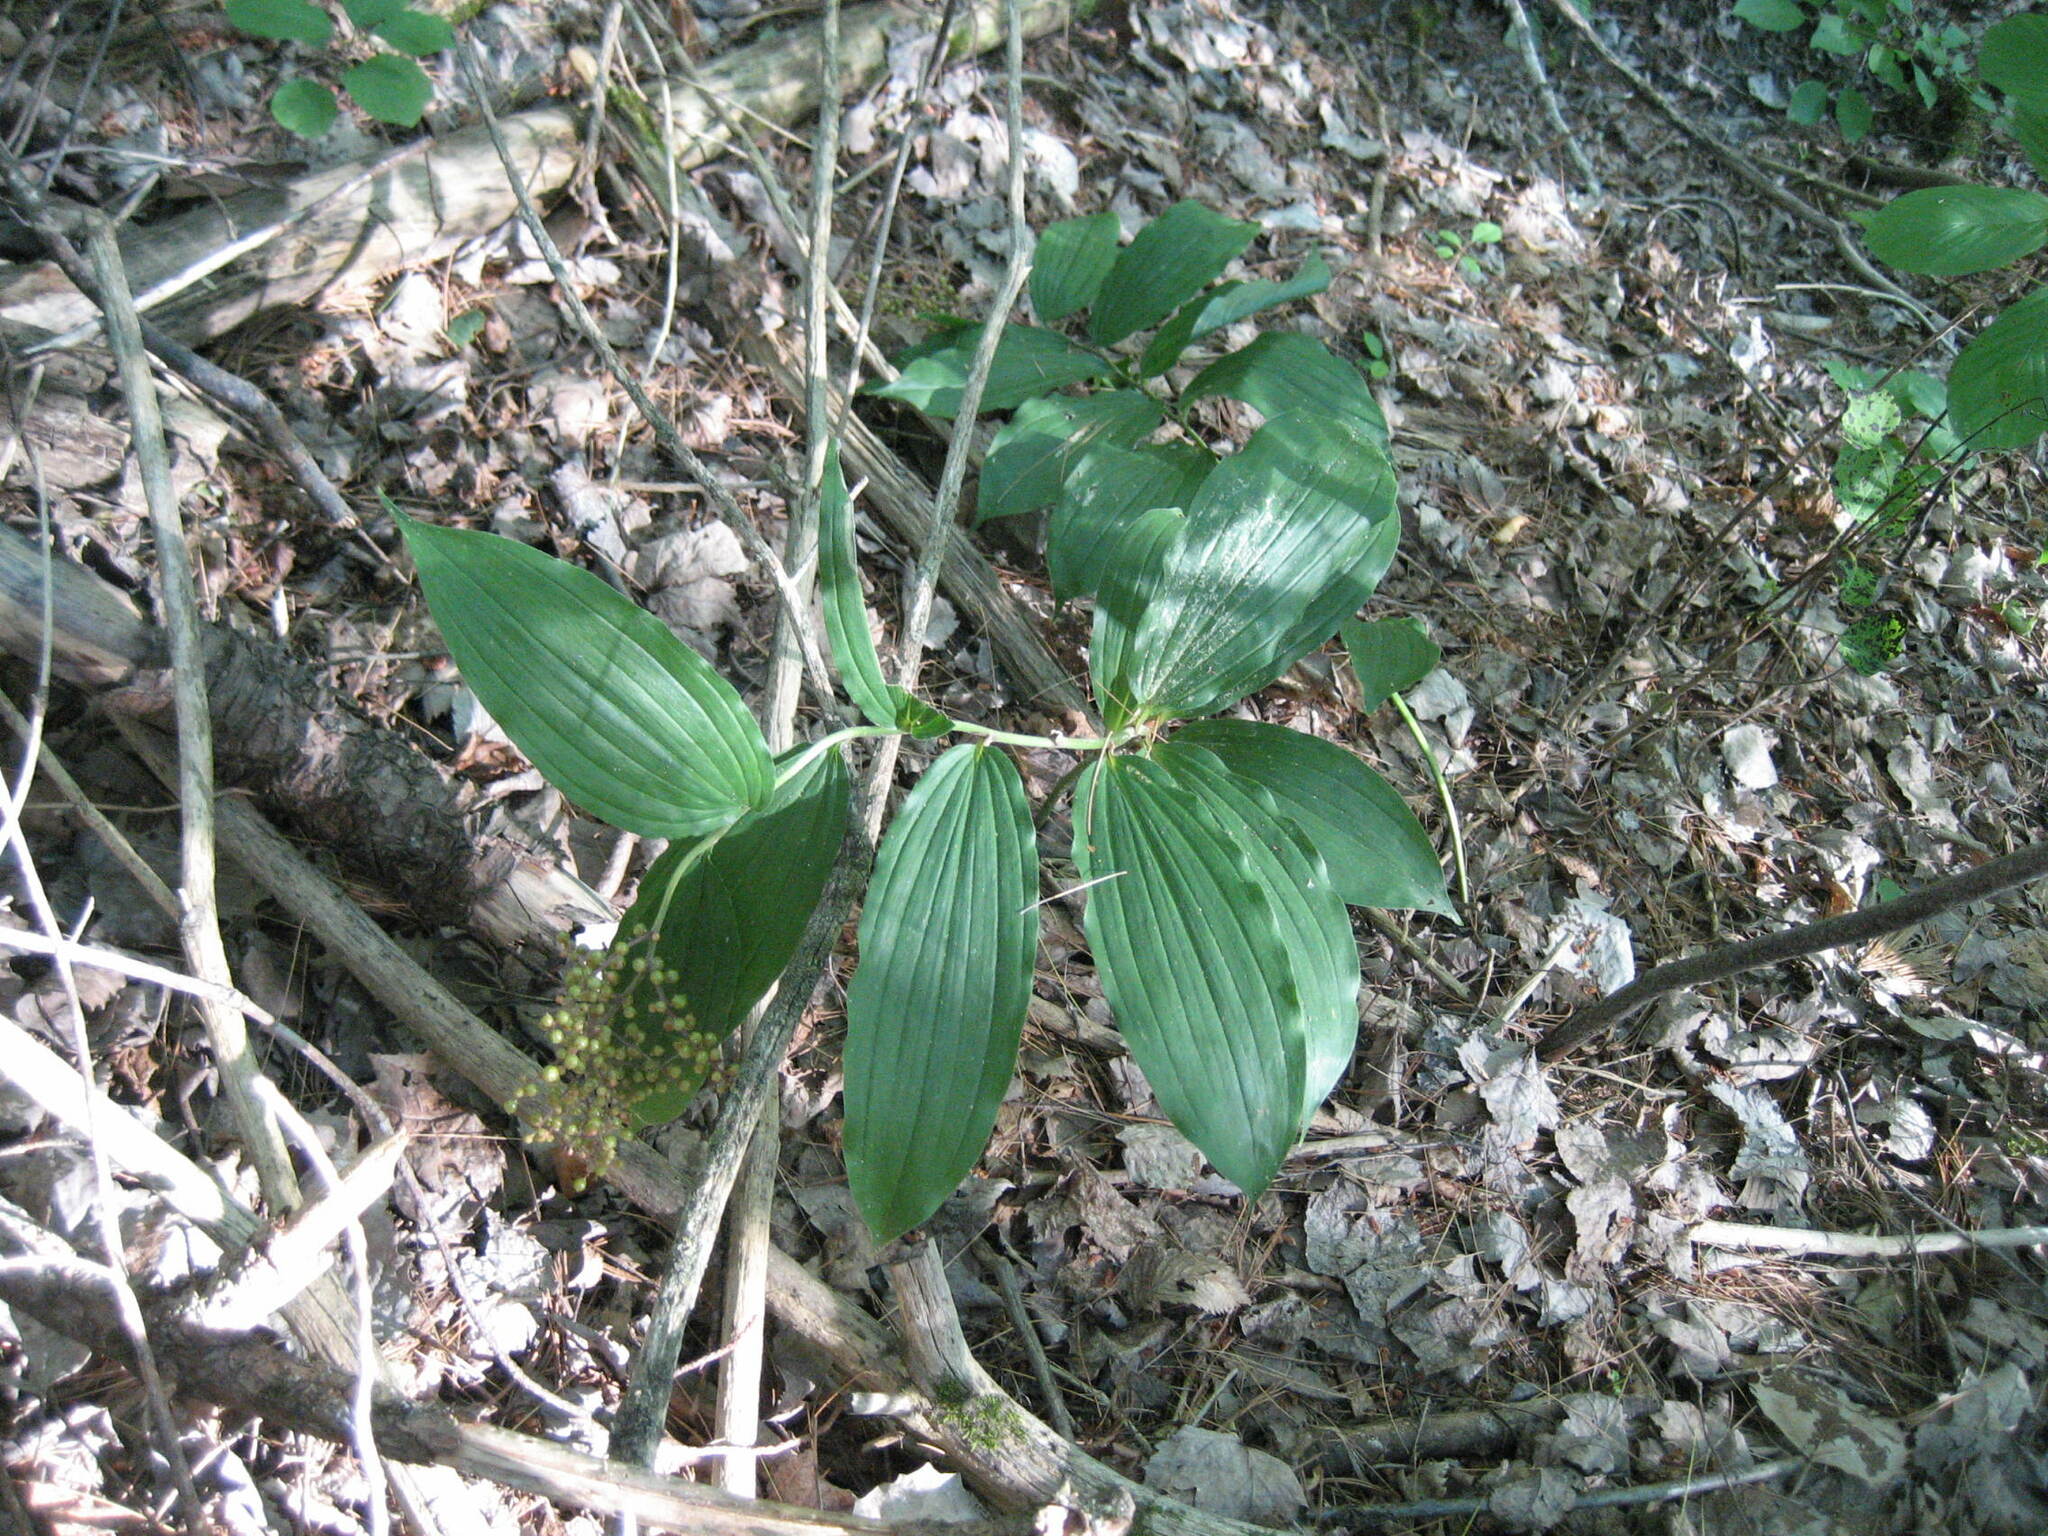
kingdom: Plantae
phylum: Tracheophyta
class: Liliopsida
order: Asparagales
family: Asparagaceae
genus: Maianthemum
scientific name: Maianthemum racemosum
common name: False spikenard
